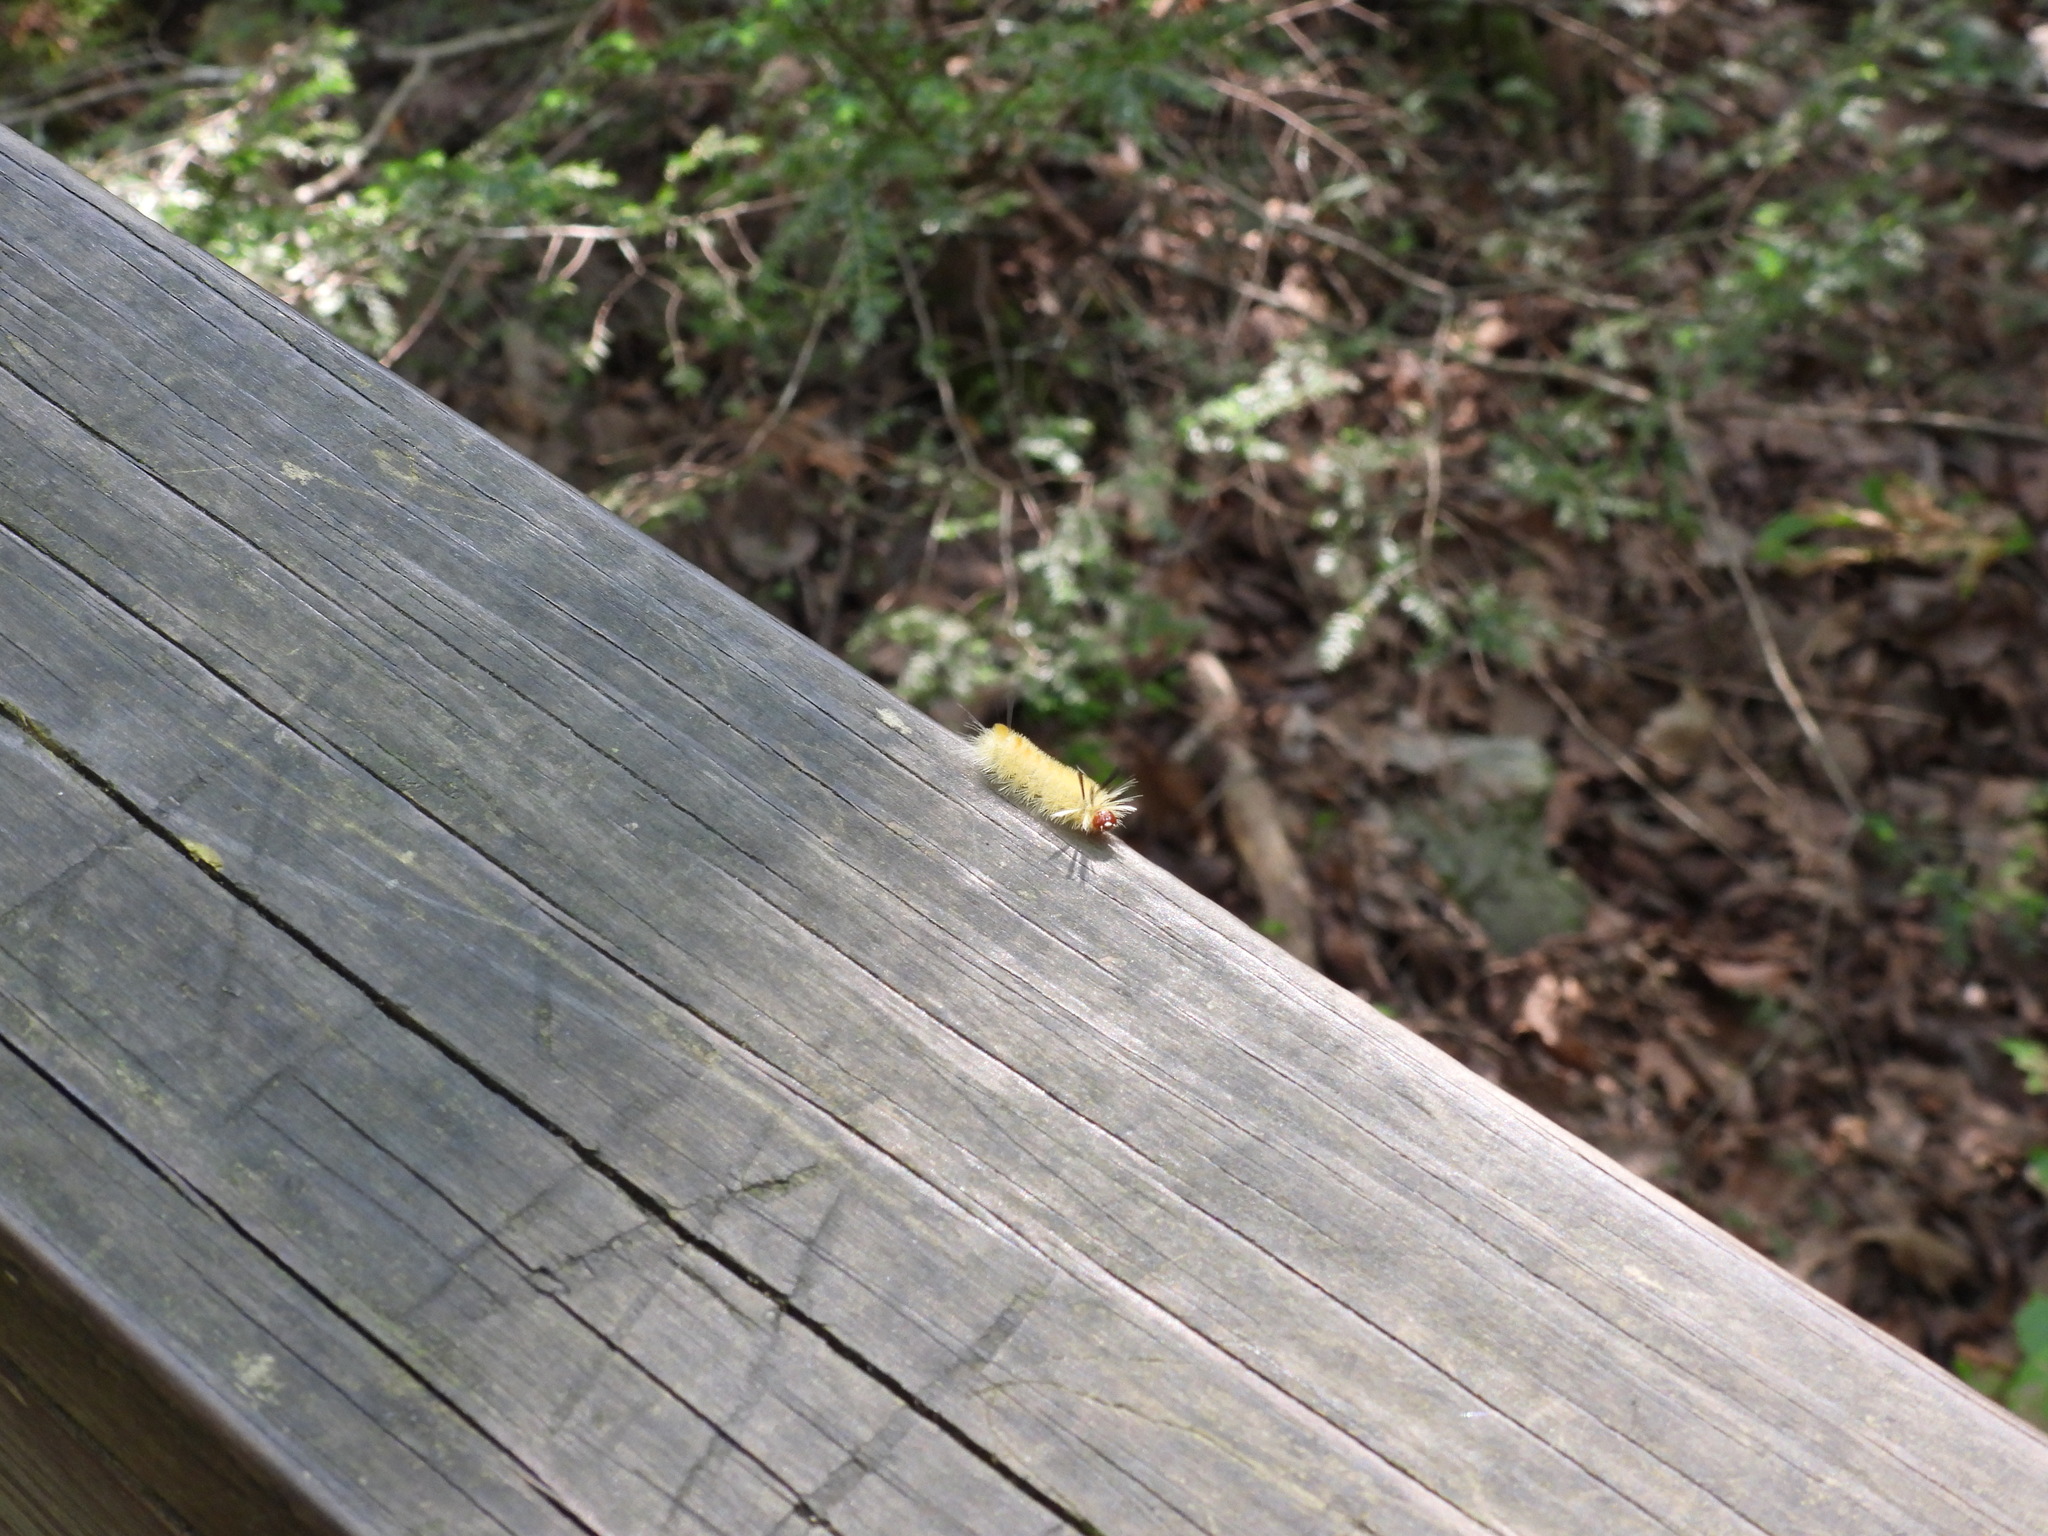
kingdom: Animalia
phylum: Arthropoda
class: Insecta
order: Lepidoptera
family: Erebidae
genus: Halysidota
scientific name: Halysidota tessellaris
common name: Banded tussock moth
